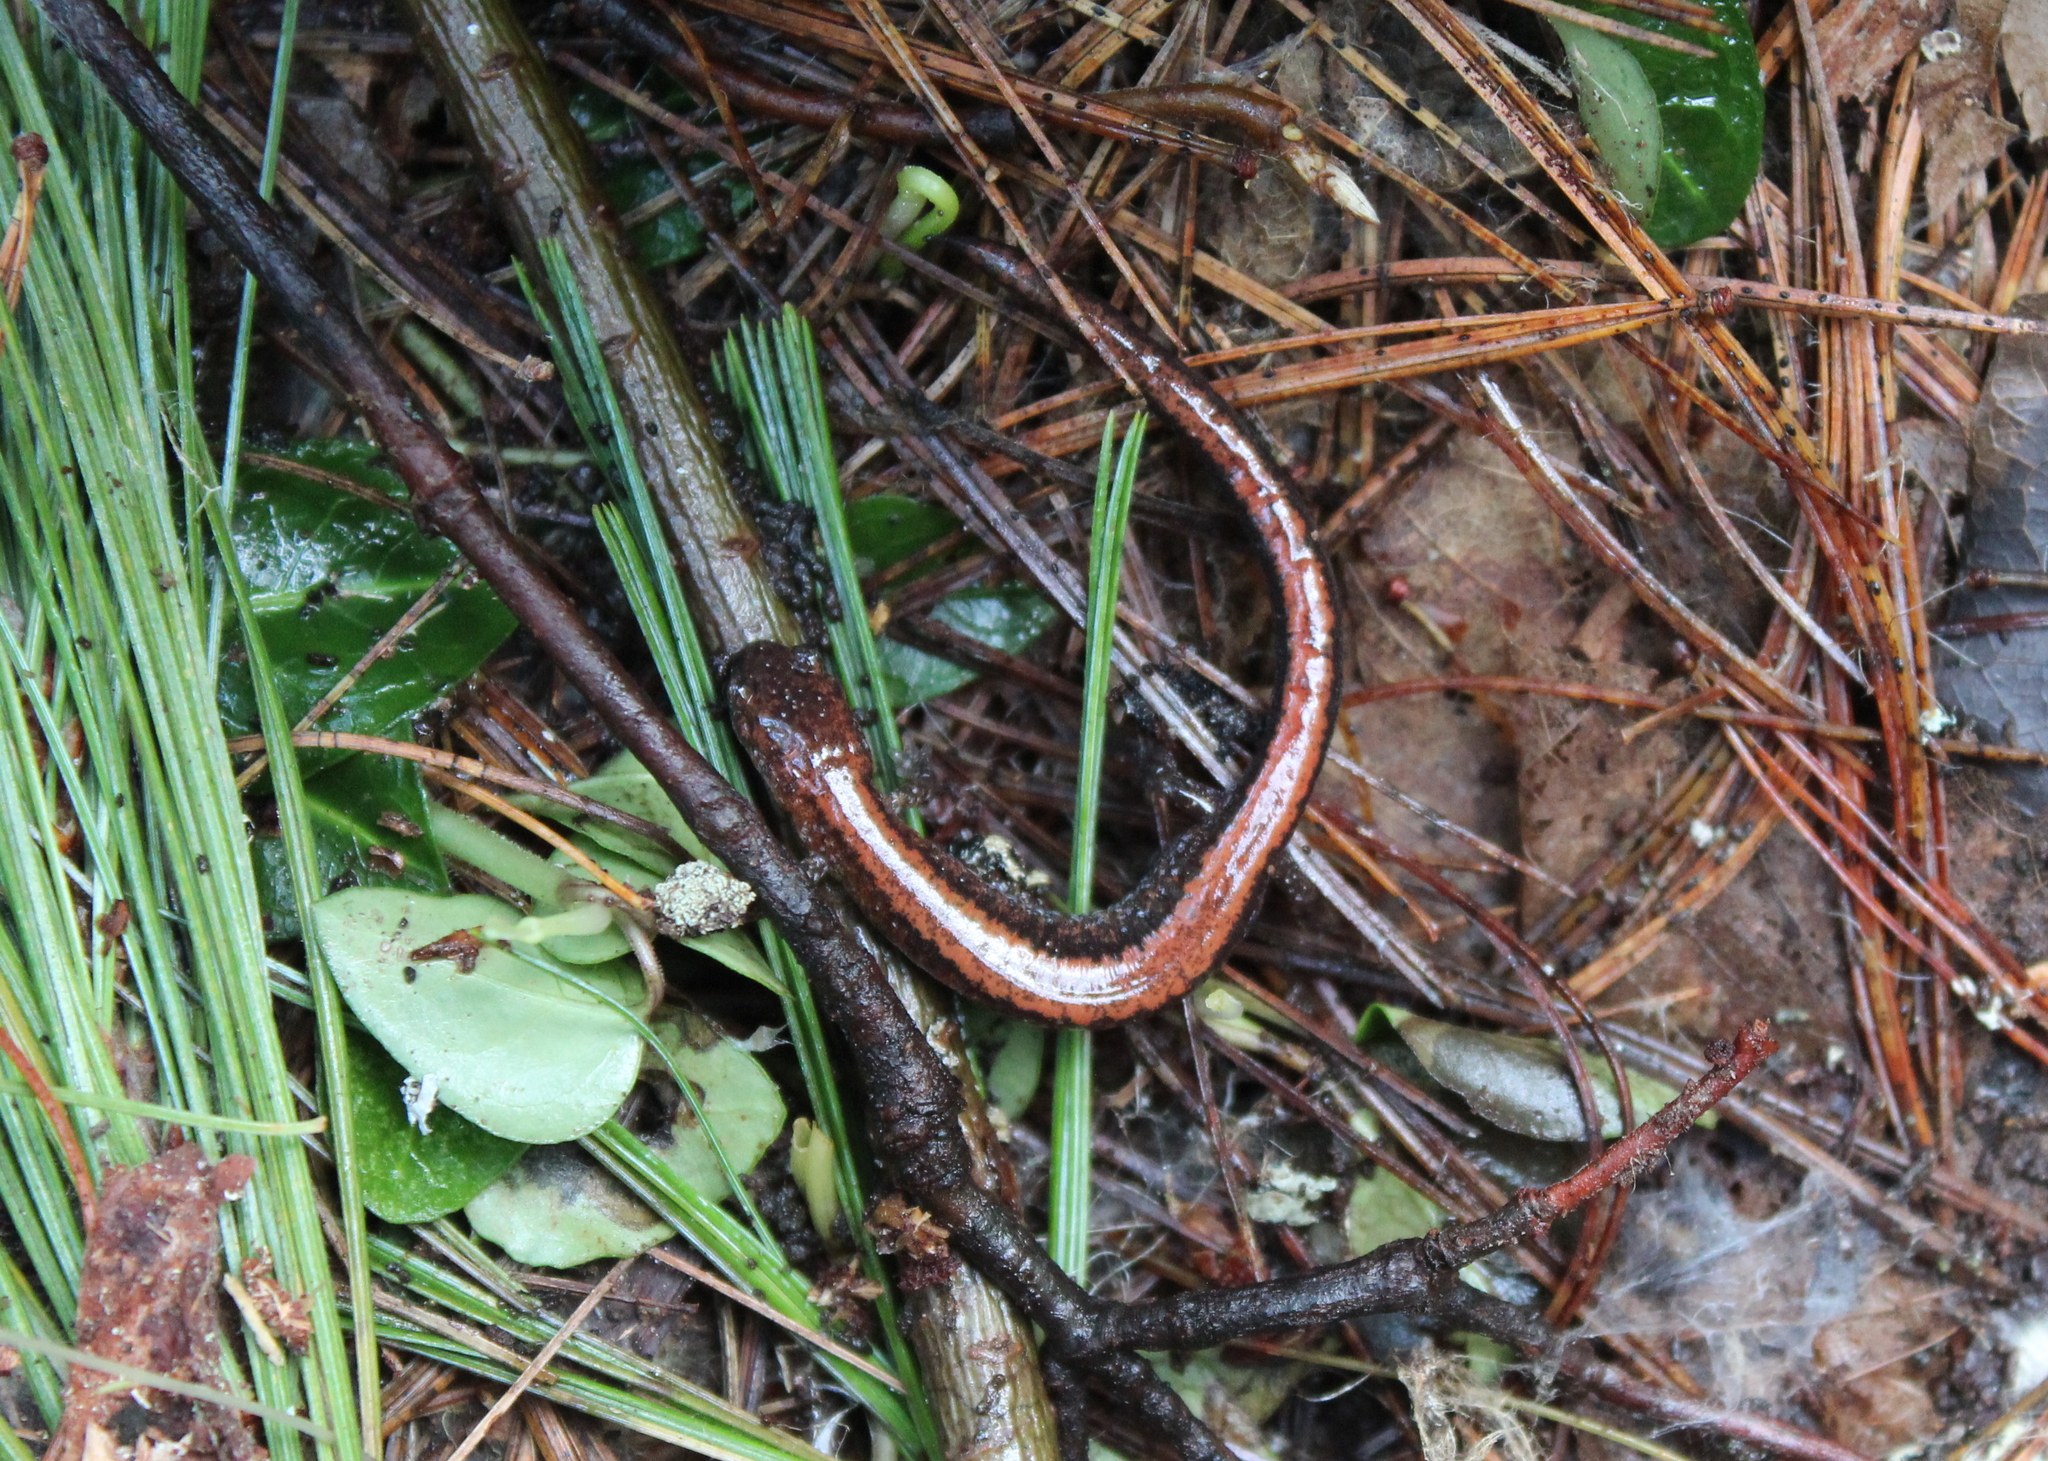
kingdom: Animalia
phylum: Chordata
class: Amphibia
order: Caudata
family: Plethodontidae
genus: Plethodon
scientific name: Plethodon cinereus
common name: Redback salamander
